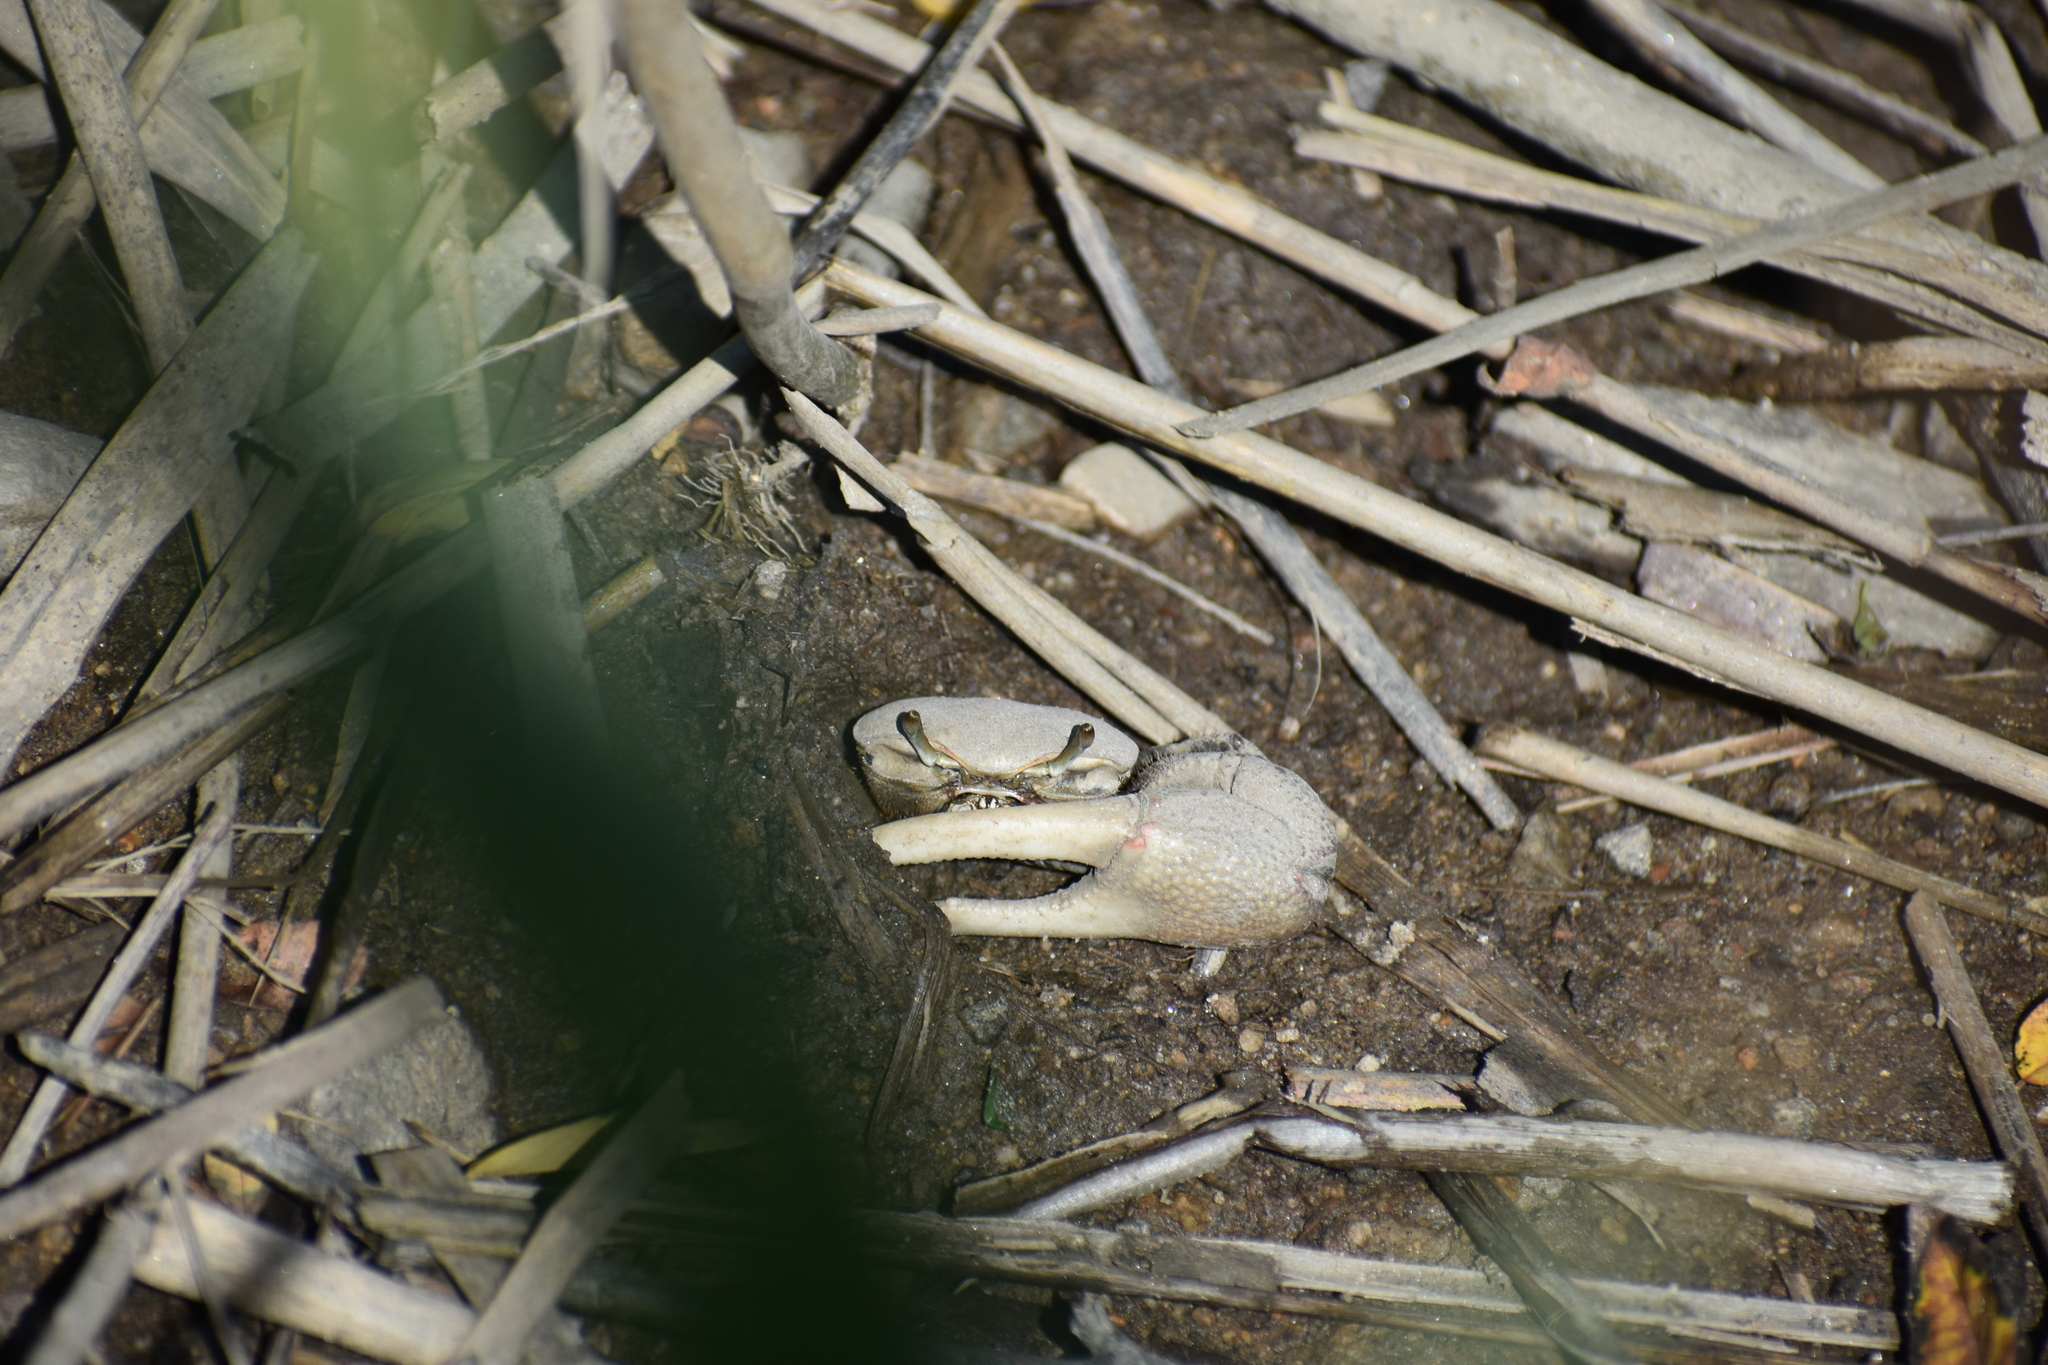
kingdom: Animalia
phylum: Arthropoda
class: Malacostraca
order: Decapoda
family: Ocypodidae
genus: Minuca
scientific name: Minuca minax
